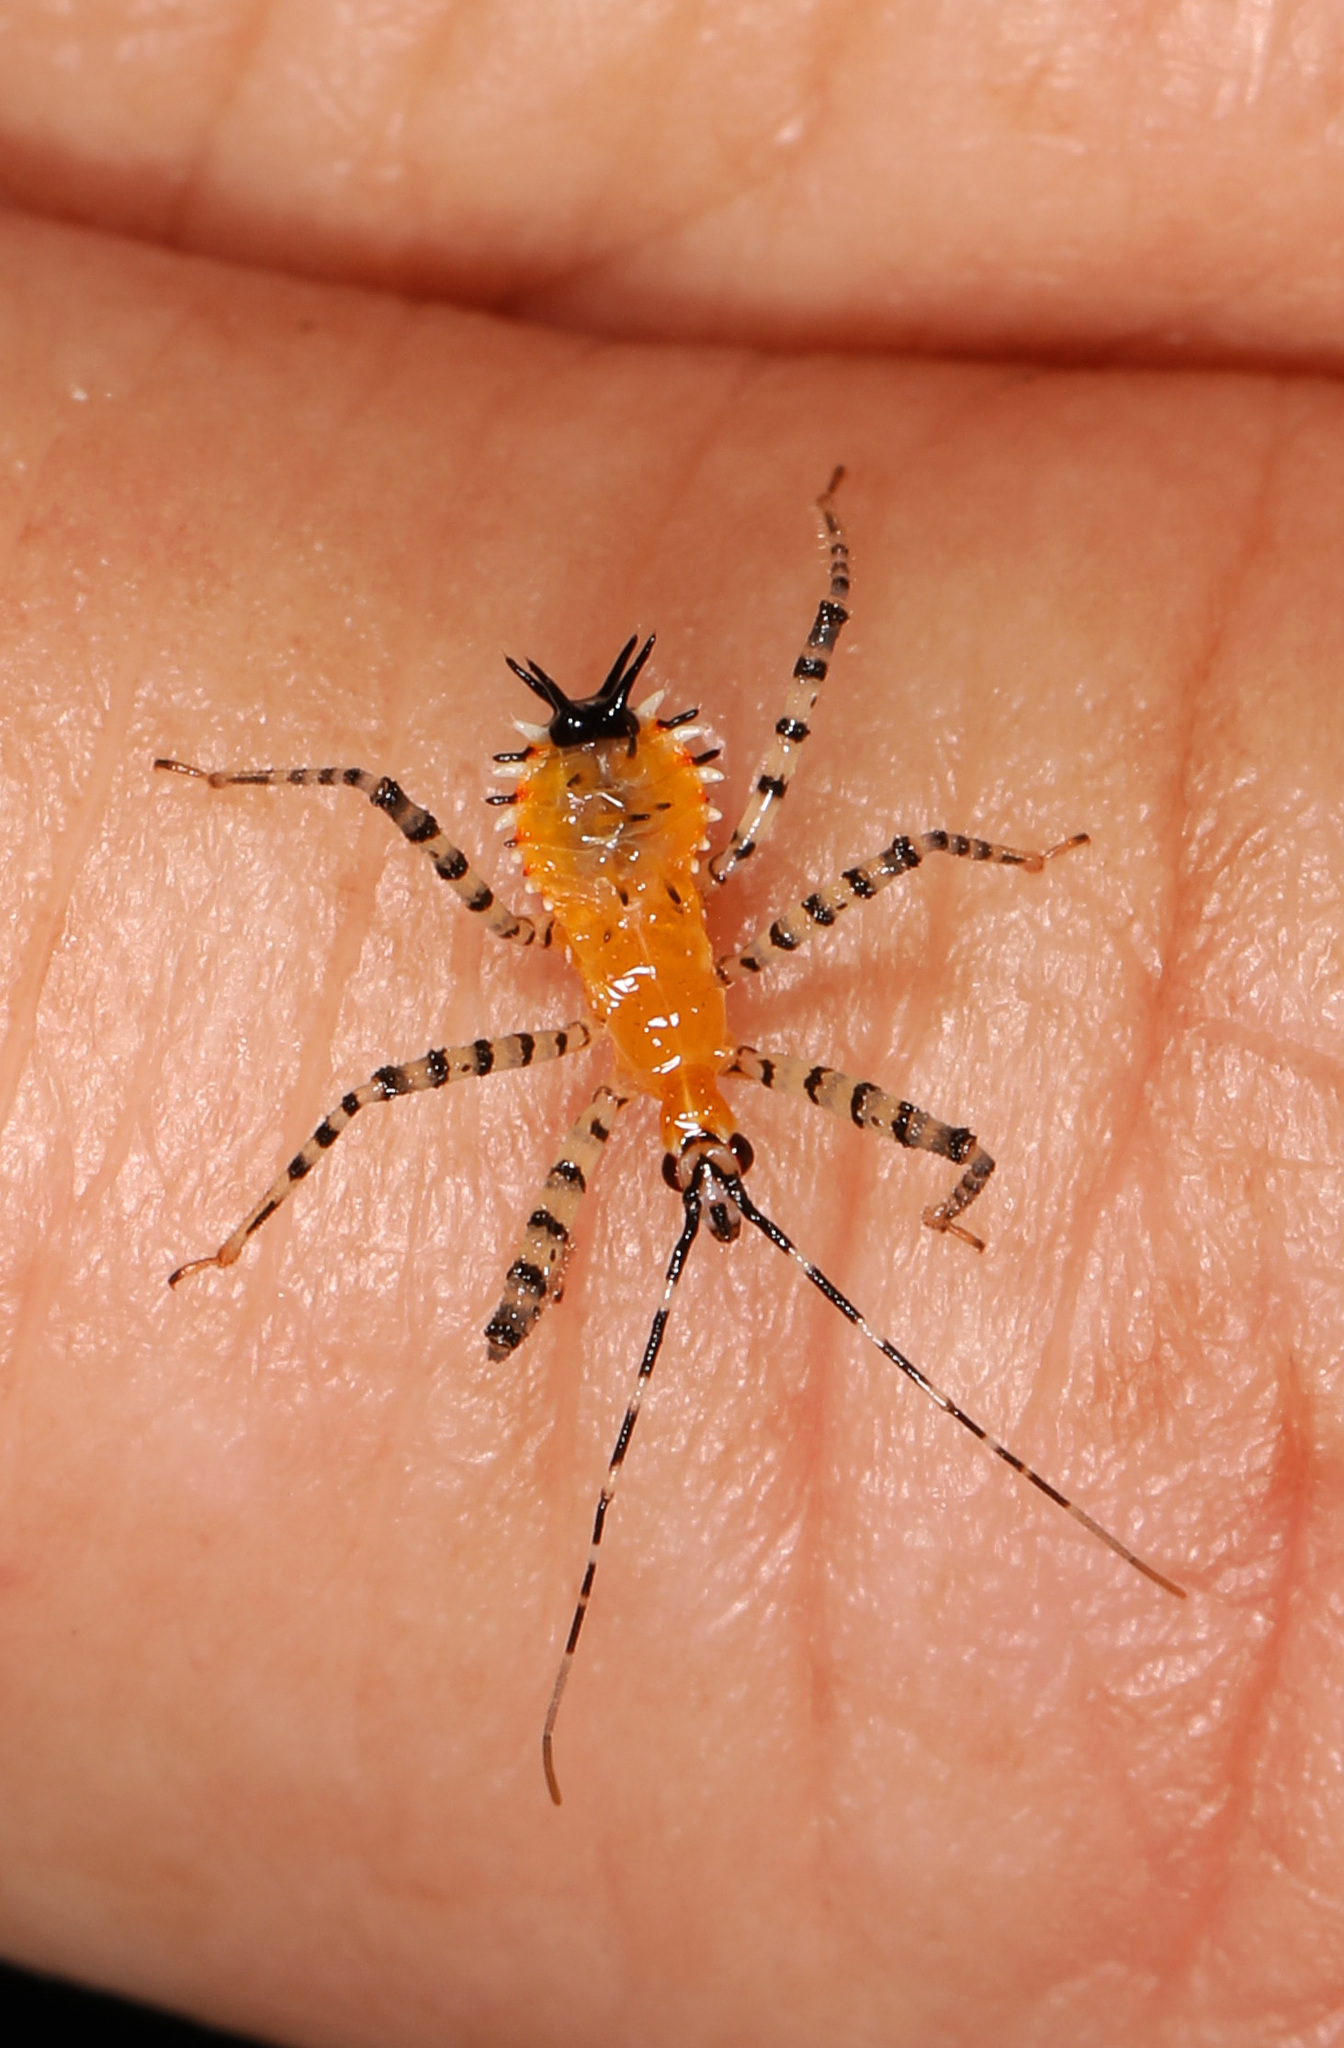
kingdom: Animalia
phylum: Arthropoda
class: Insecta
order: Hemiptera
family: Reduviidae
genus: Pselliopus
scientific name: Pselliopus barberi
